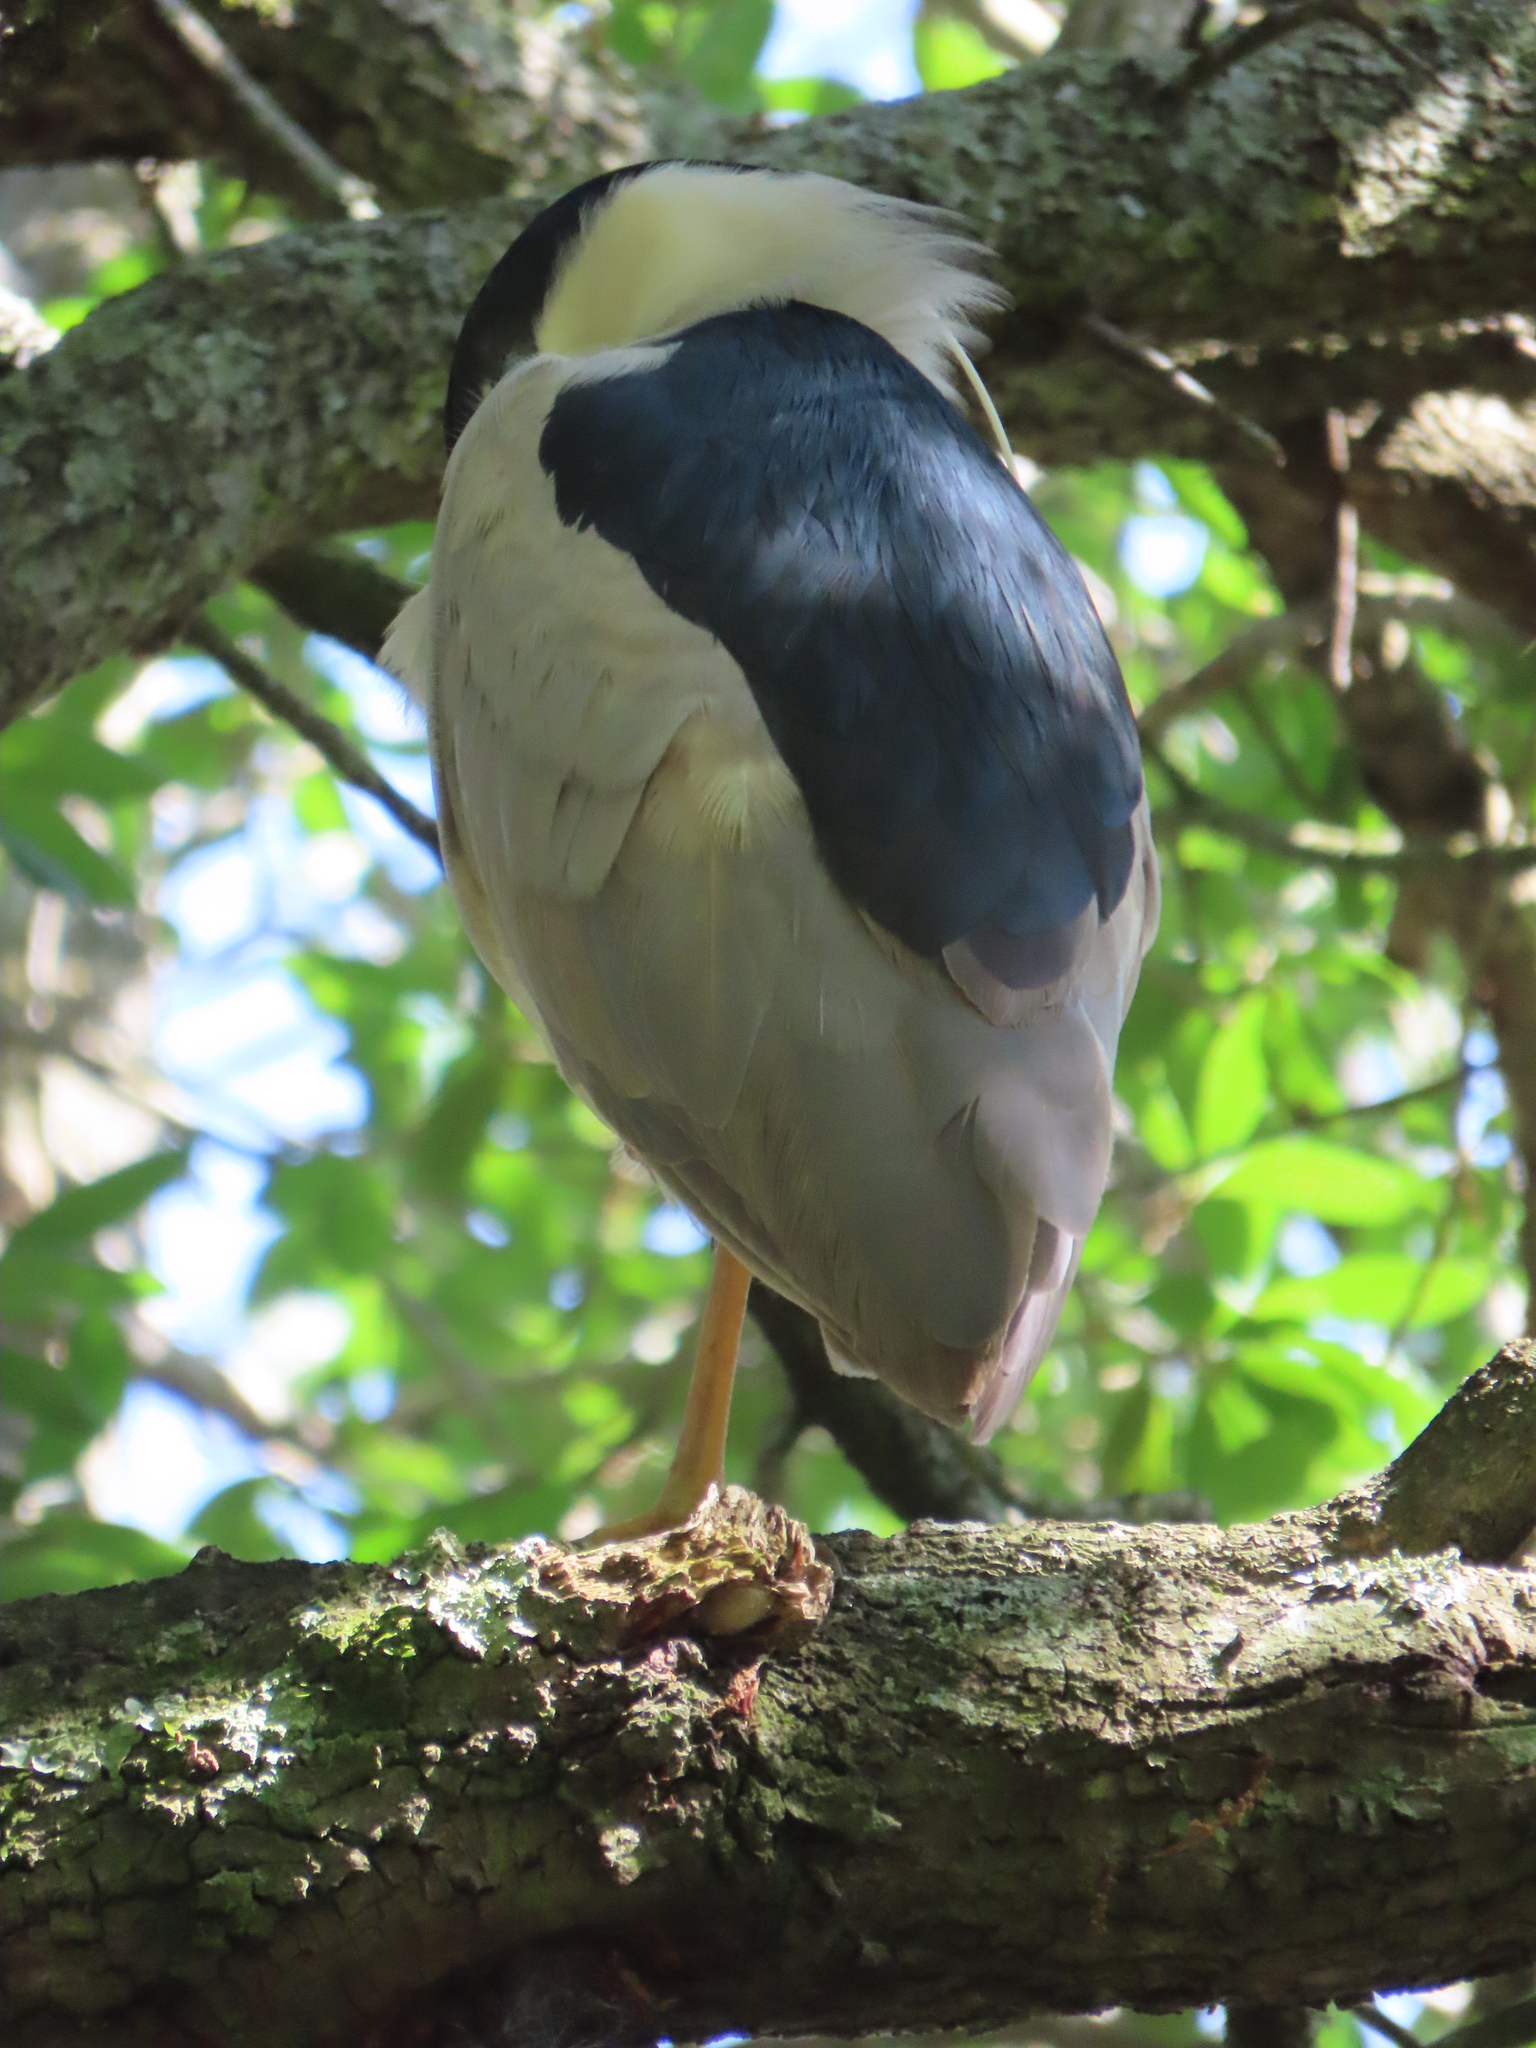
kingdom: Animalia
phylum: Chordata
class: Aves
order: Pelecaniformes
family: Ardeidae
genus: Nycticorax
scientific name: Nycticorax nycticorax
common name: Black-crowned night heron
